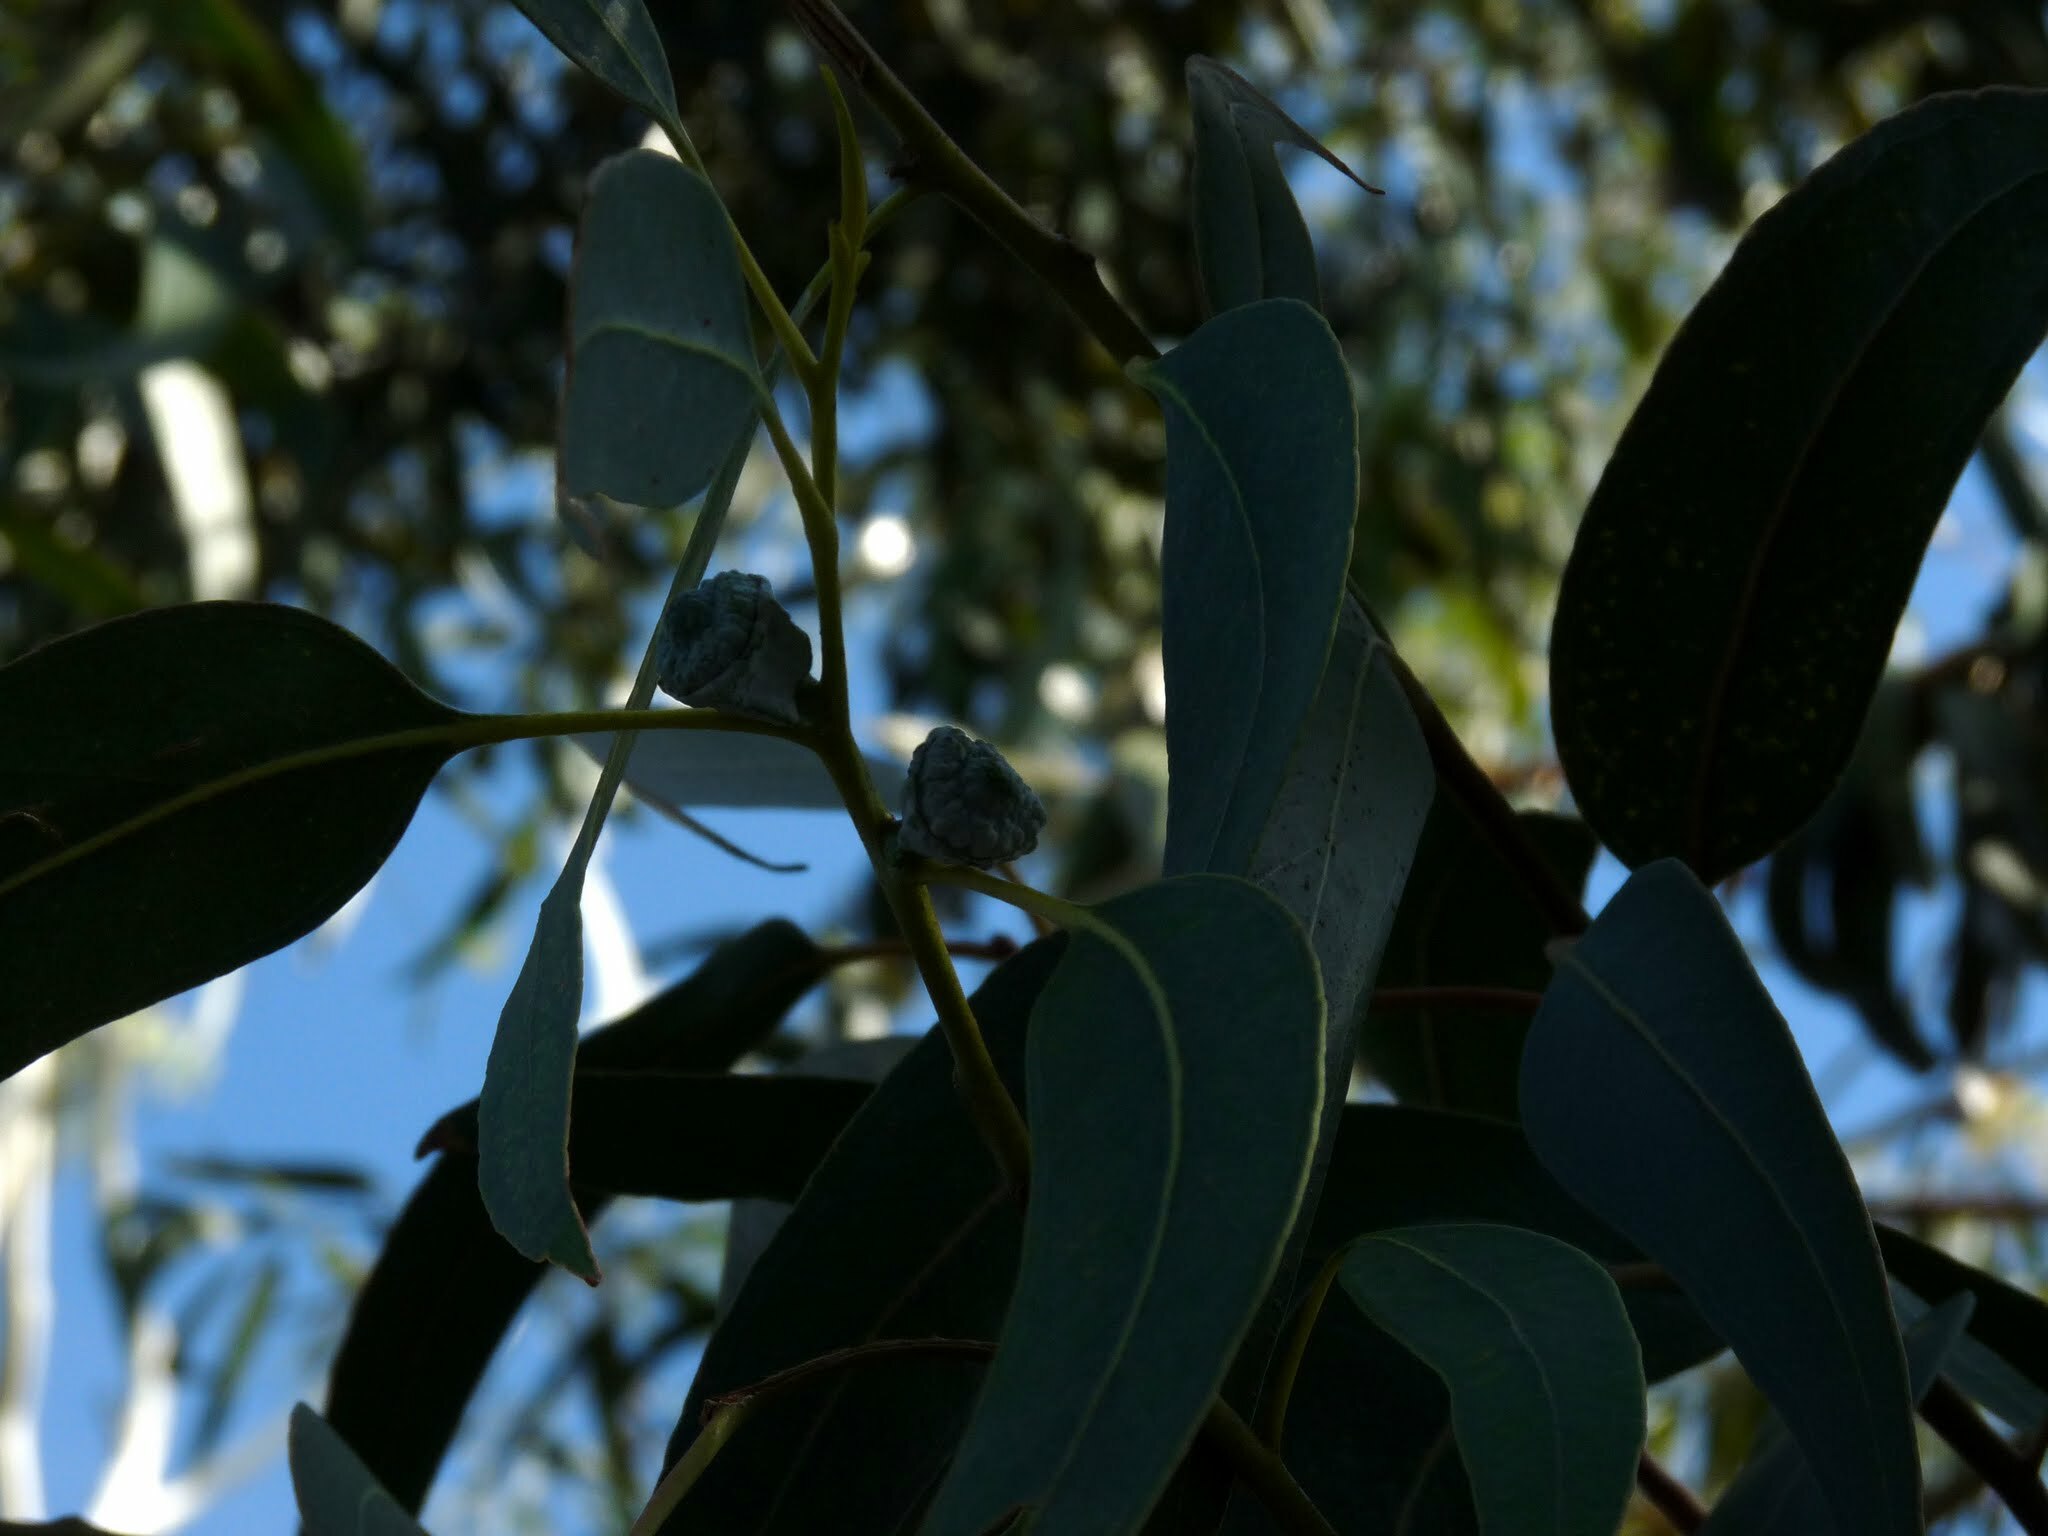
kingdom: Plantae
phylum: Tracheophyta
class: Magnoliopsida
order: Myrtales
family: Myrtaceae
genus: Eucalyptus
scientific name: Eucalyptus globulus
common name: Southern blue-gum
